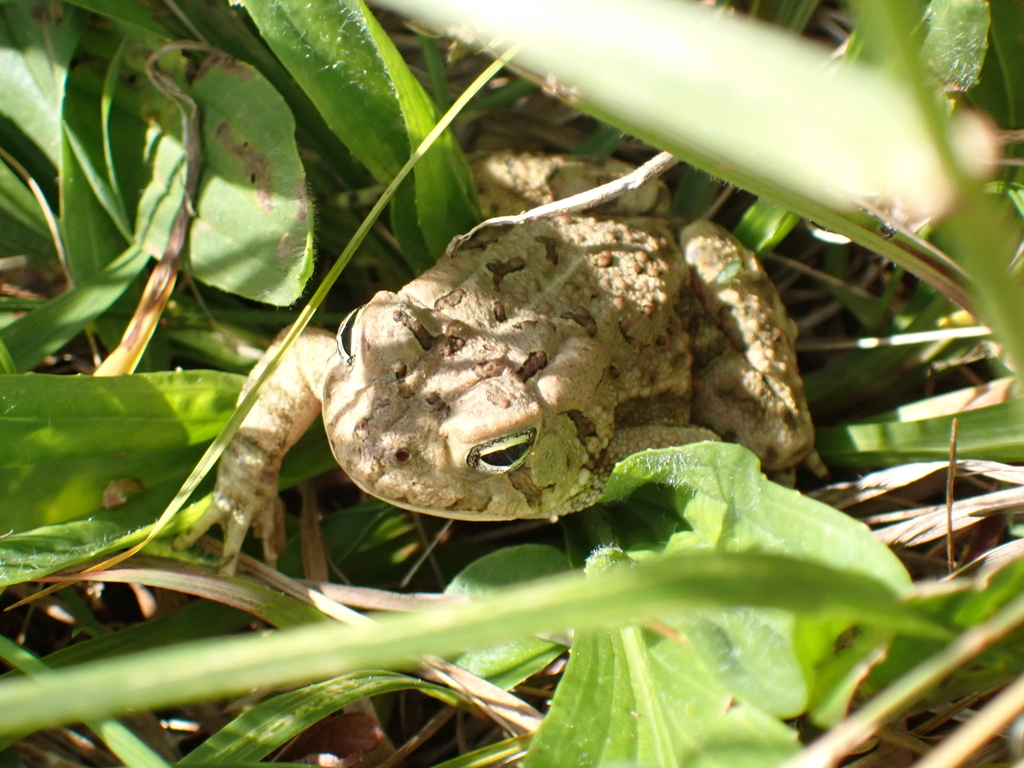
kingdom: Animalia
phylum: Chordata
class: Amphibia
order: Anura
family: Bufonidae
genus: Anaxyrus
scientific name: Anaxyrus fowleri
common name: Fowler's toad
